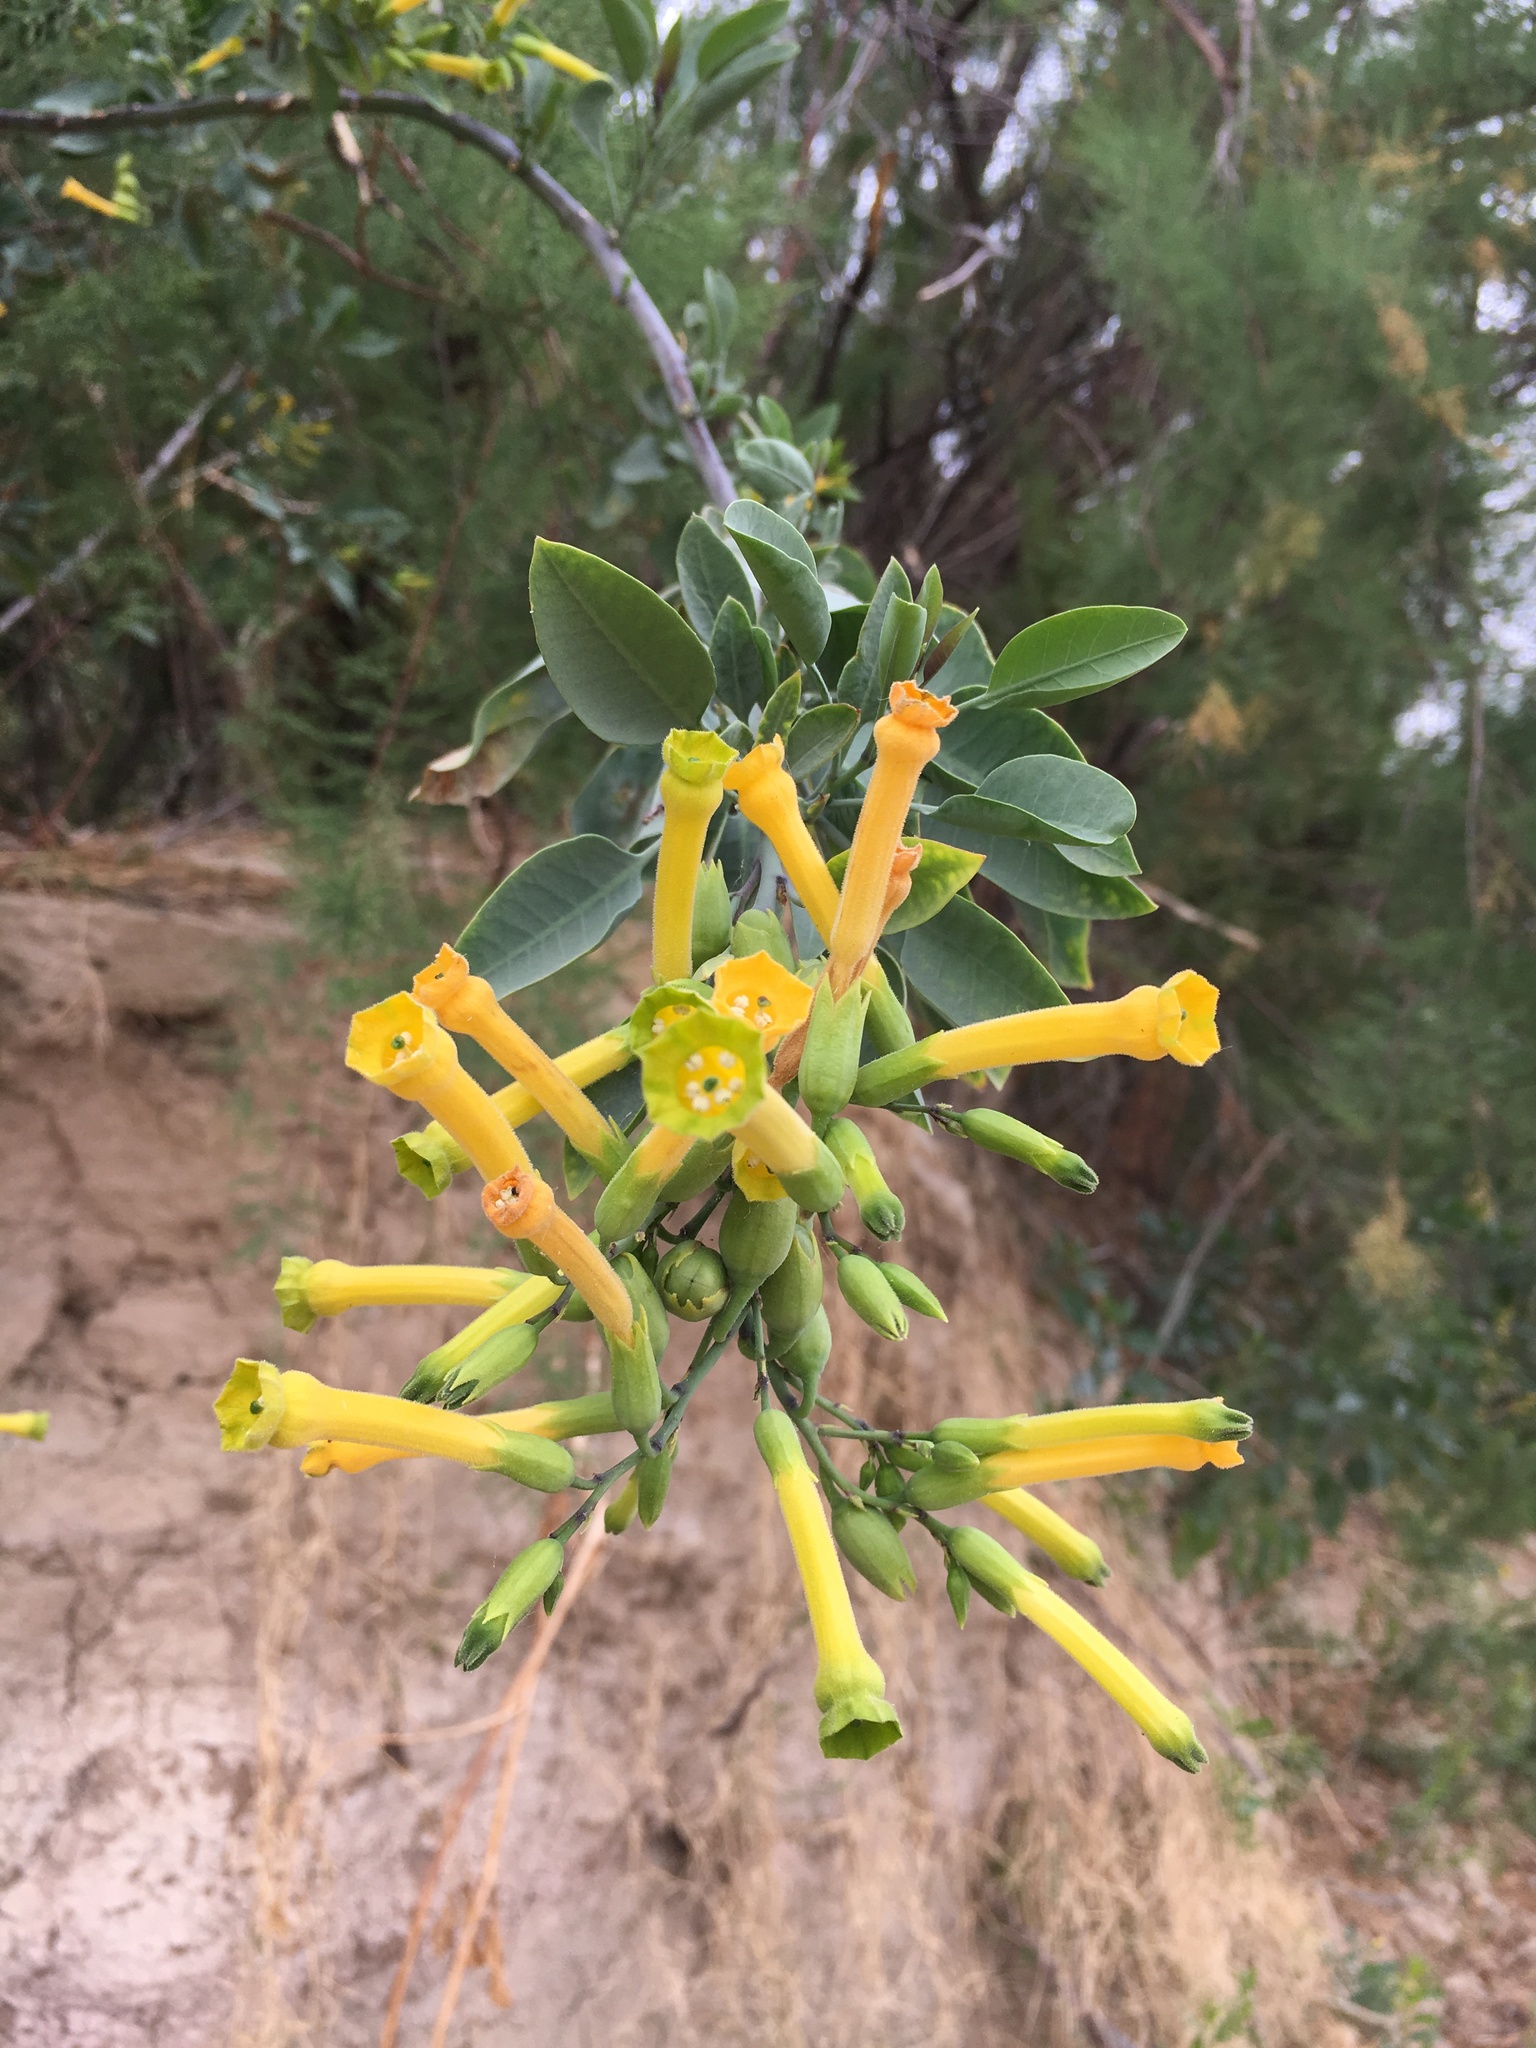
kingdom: Plantae
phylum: Tracheophyta
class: Magnoliopsida
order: Solanales
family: Solanaceae
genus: Nicotiana
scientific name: Nicotiana glauca
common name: Tree tobacco
